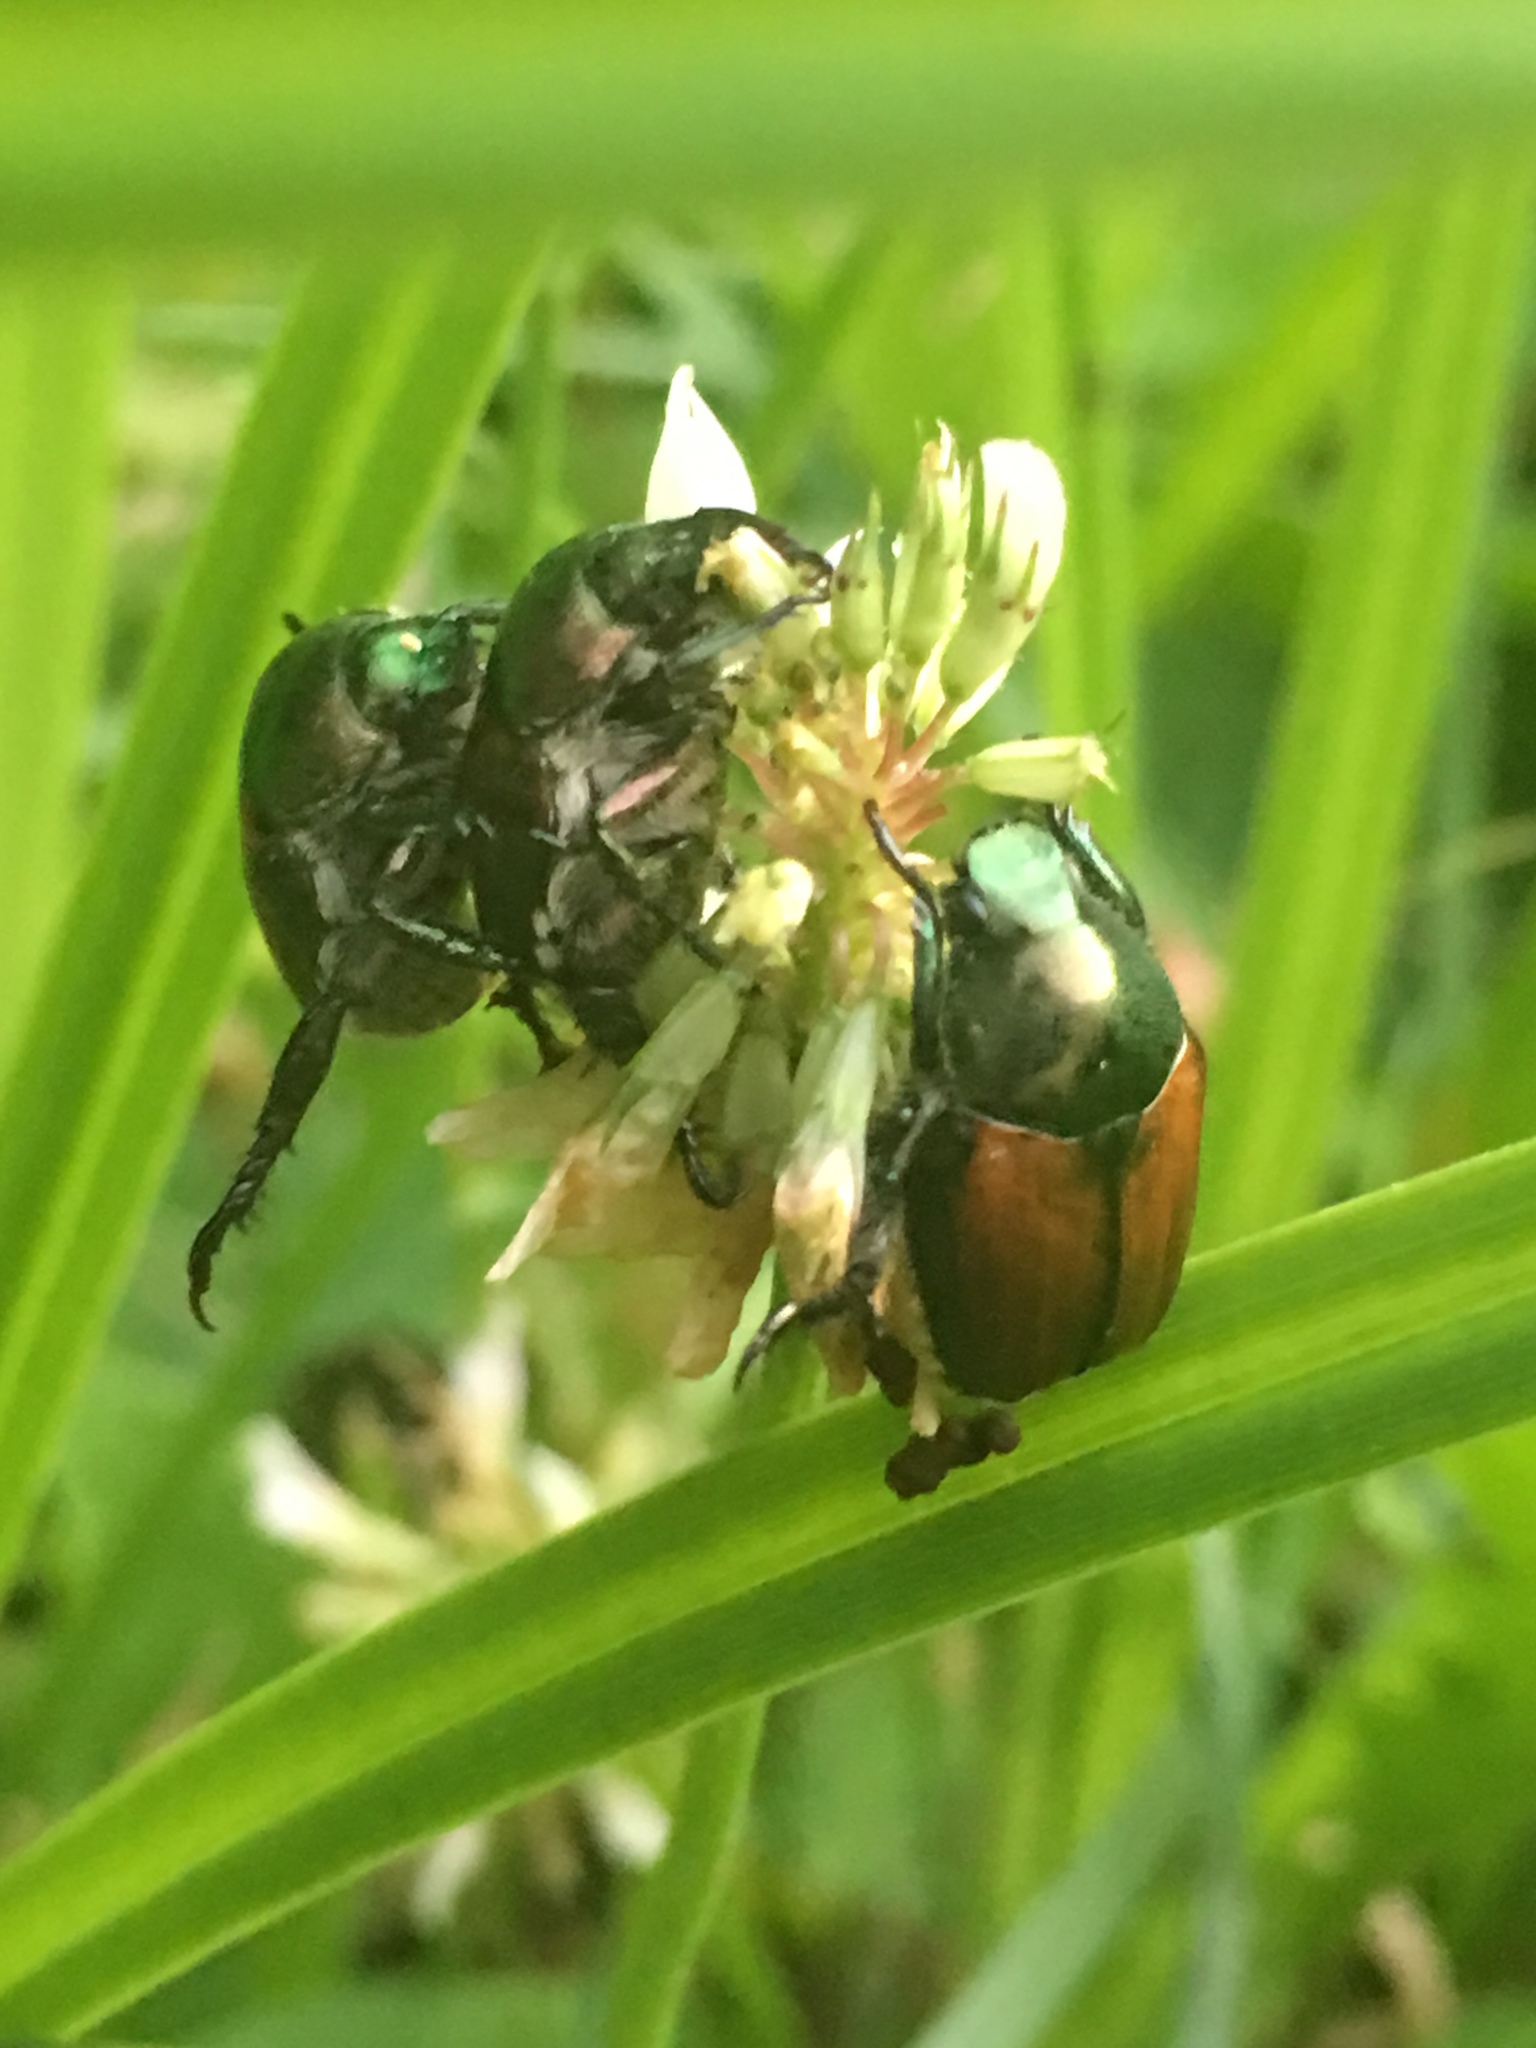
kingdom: Animalia
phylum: Arthropoda
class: Insecta
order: Coleoptera
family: Scarabaeidae
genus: Popillia
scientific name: Popillia japonica
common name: Japanese beetle
